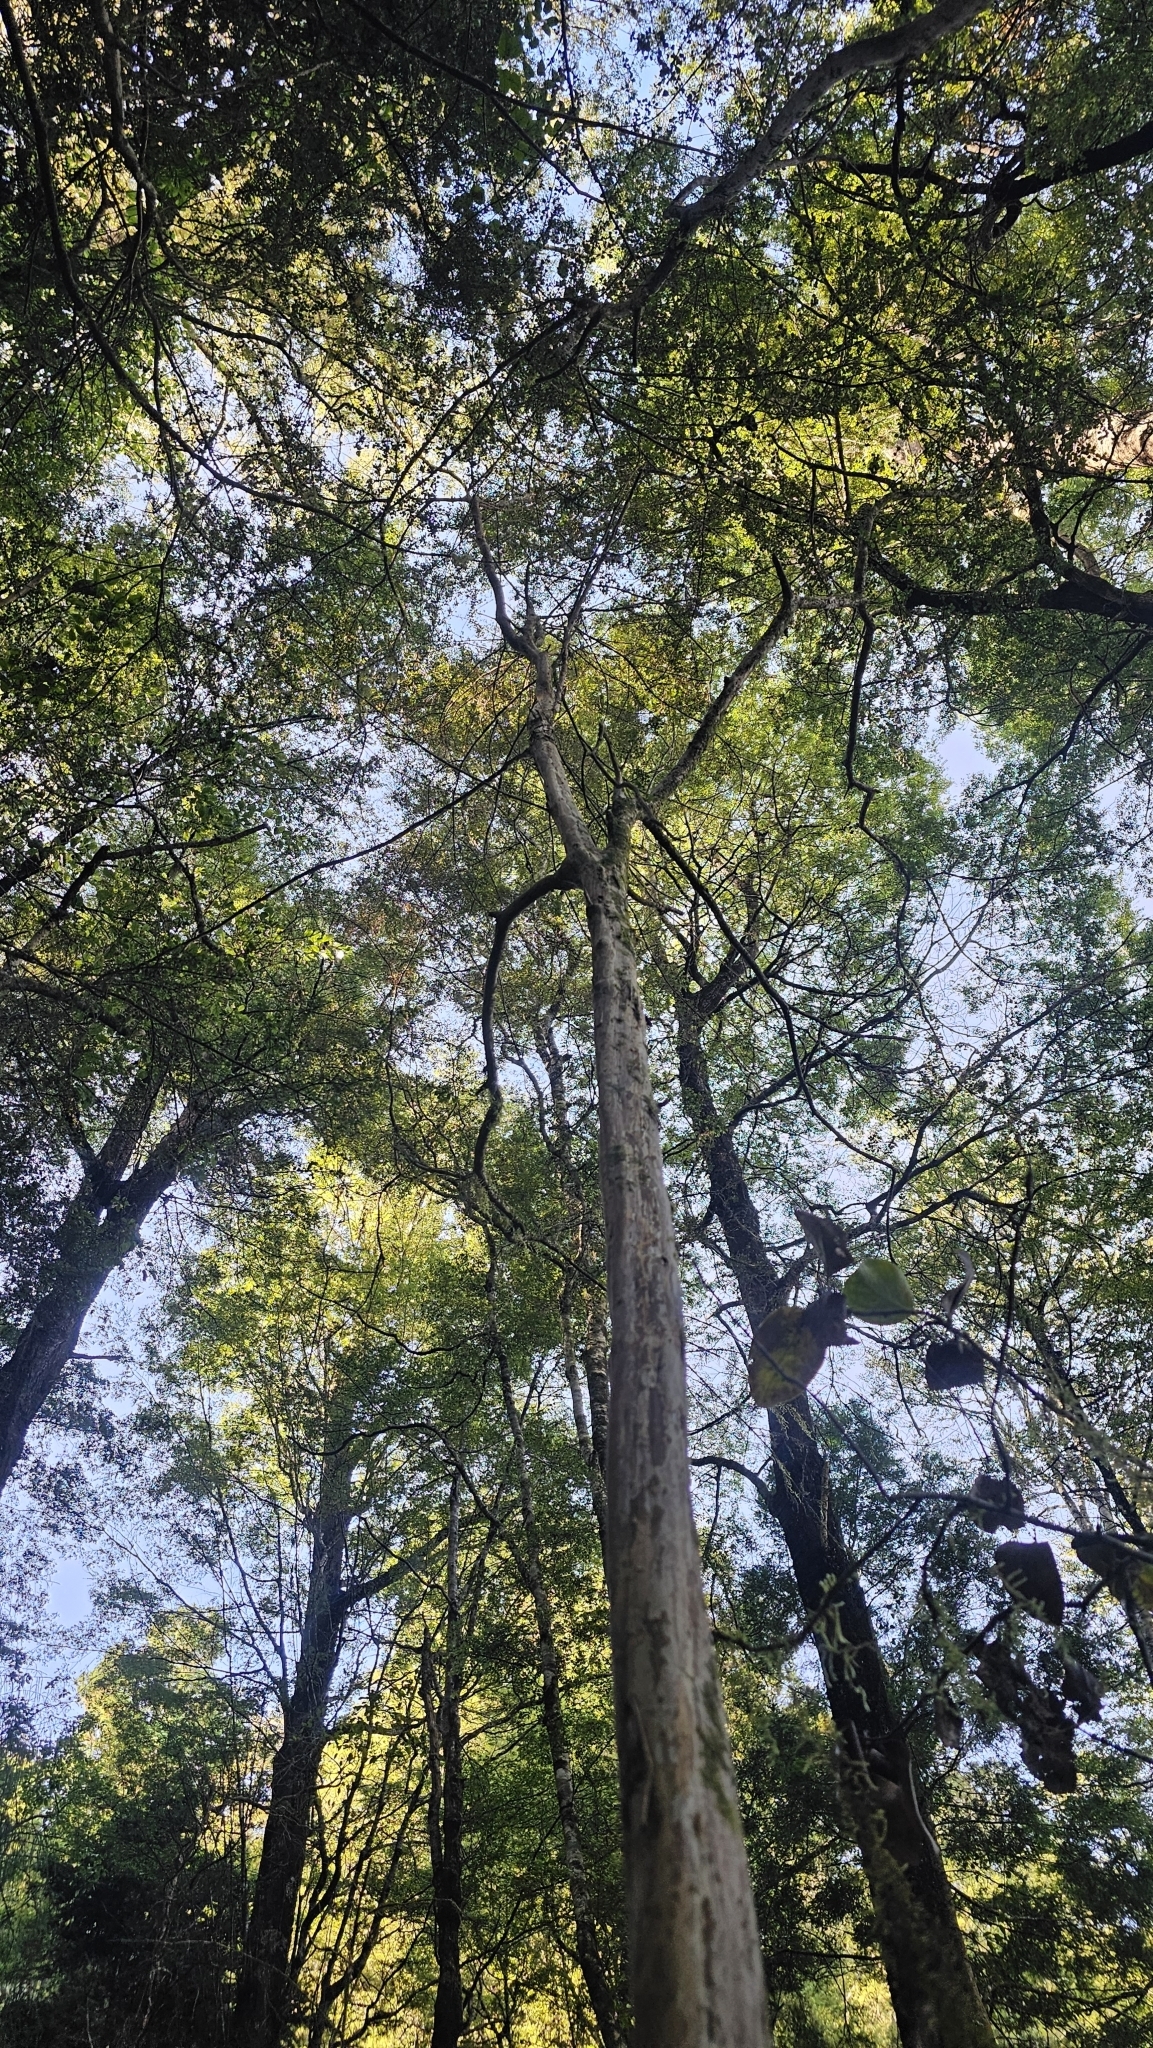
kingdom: Plantae
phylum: Tracheophyta
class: Magnoliopsida
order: Myrtales
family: Myrtaceae
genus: Lophomyrtus
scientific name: Lophomyrtus obcordata
